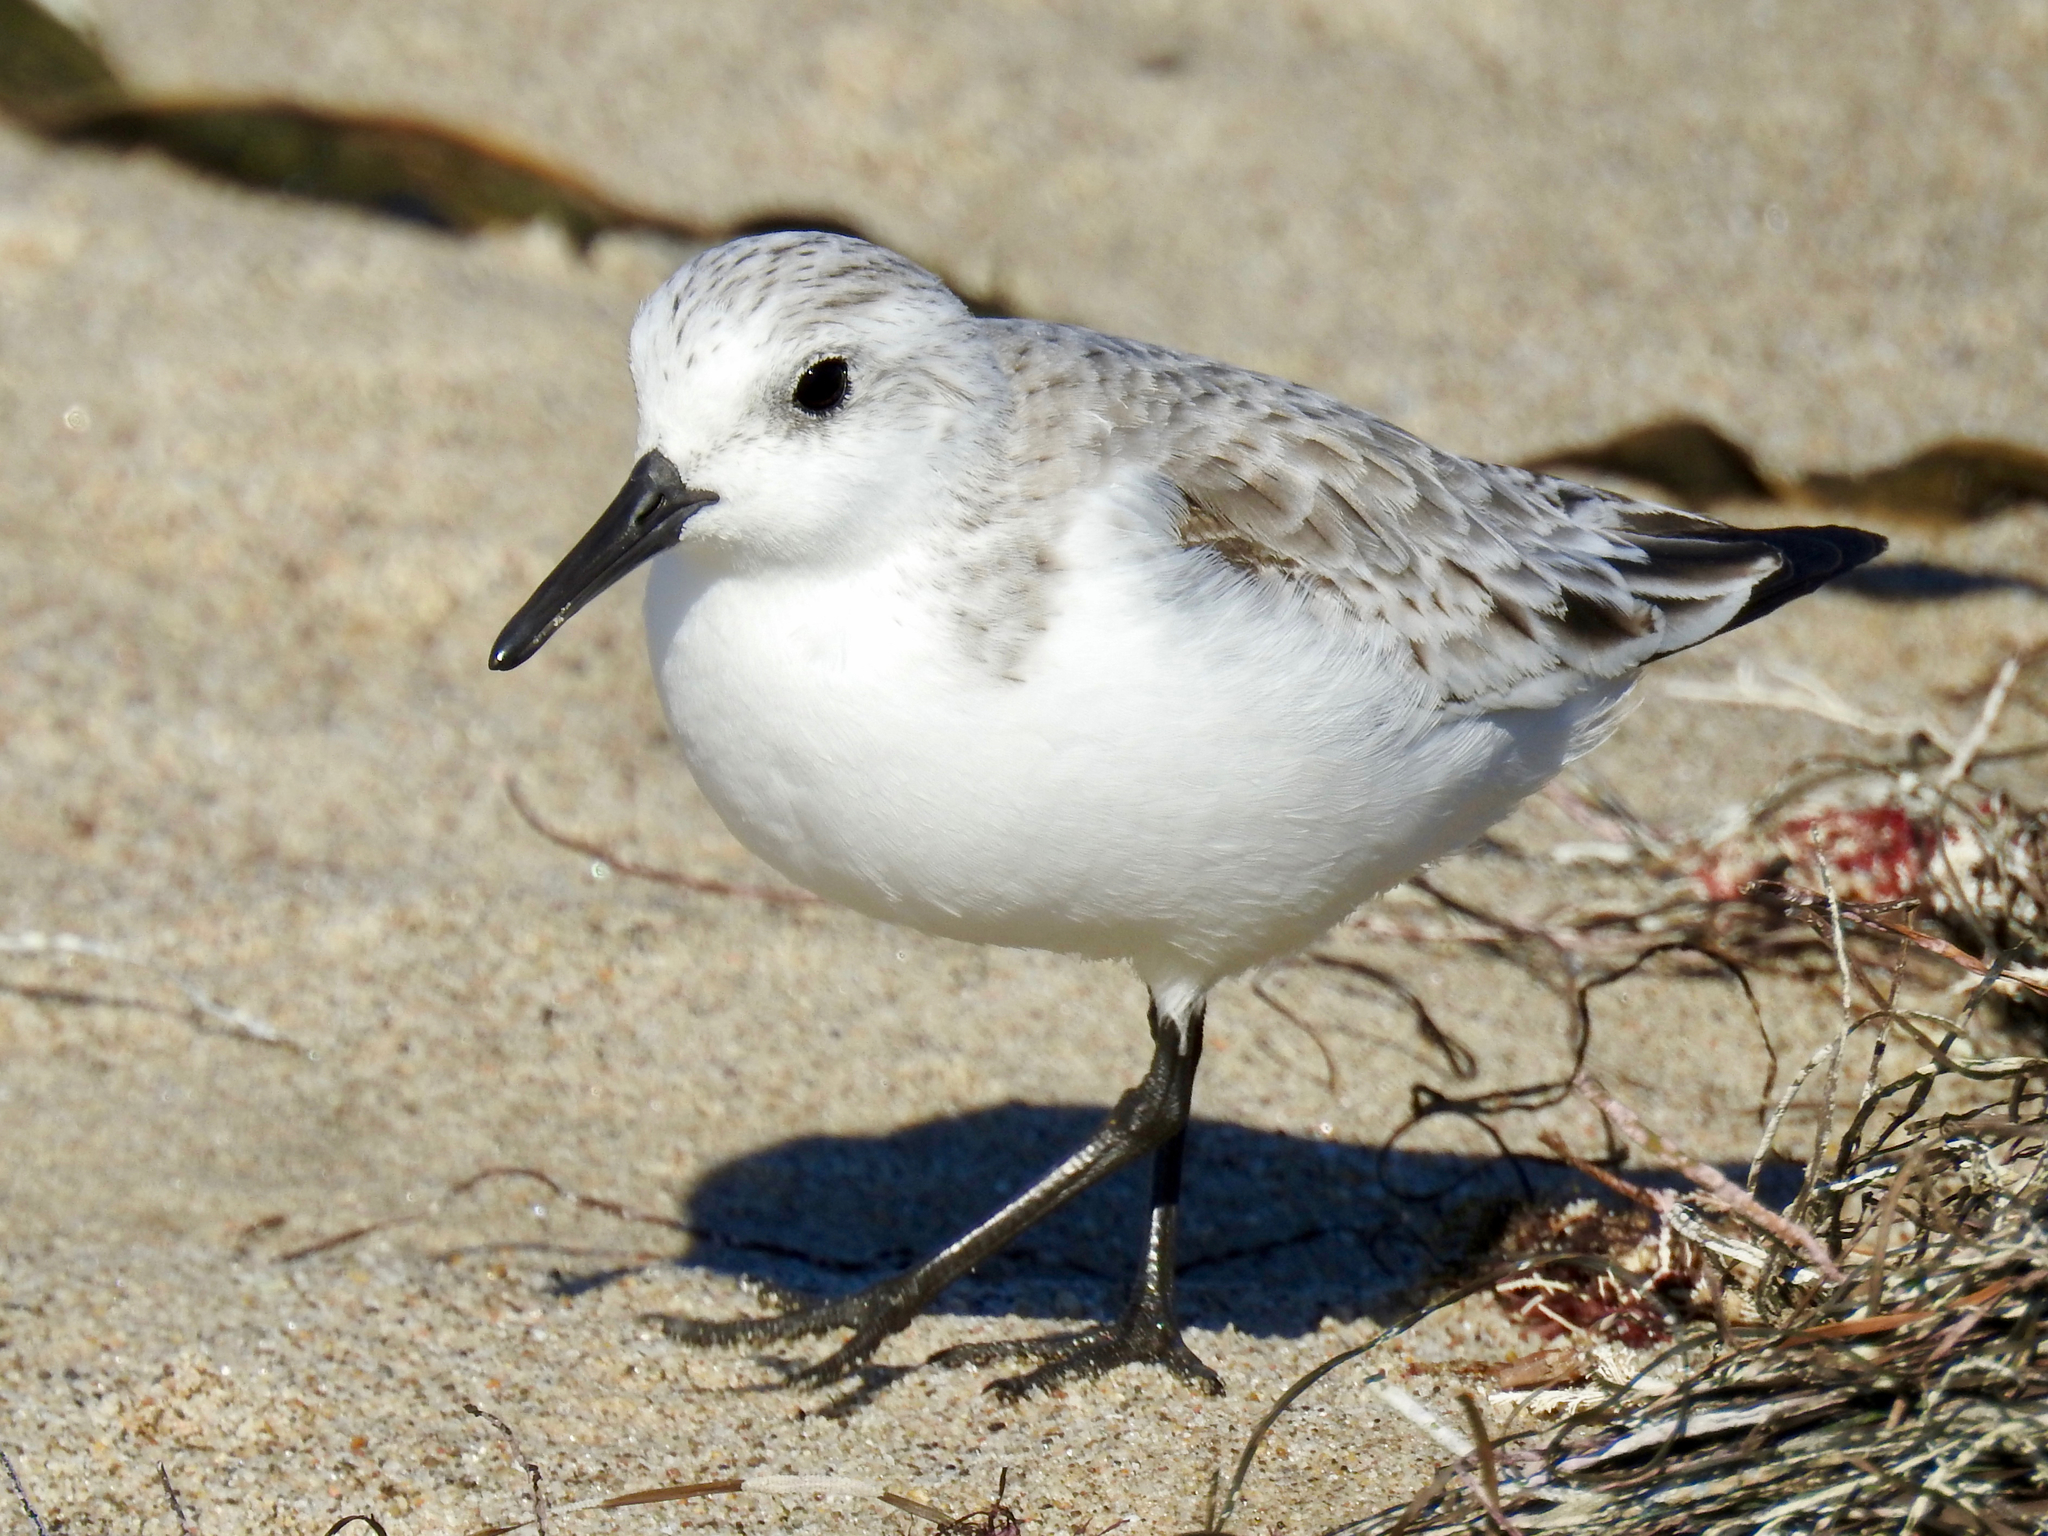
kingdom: Animalia
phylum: Chordata
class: Aves
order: Charadriiformes
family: Scolopacidae
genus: Calidris
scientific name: Calidris alba
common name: Sanderling
